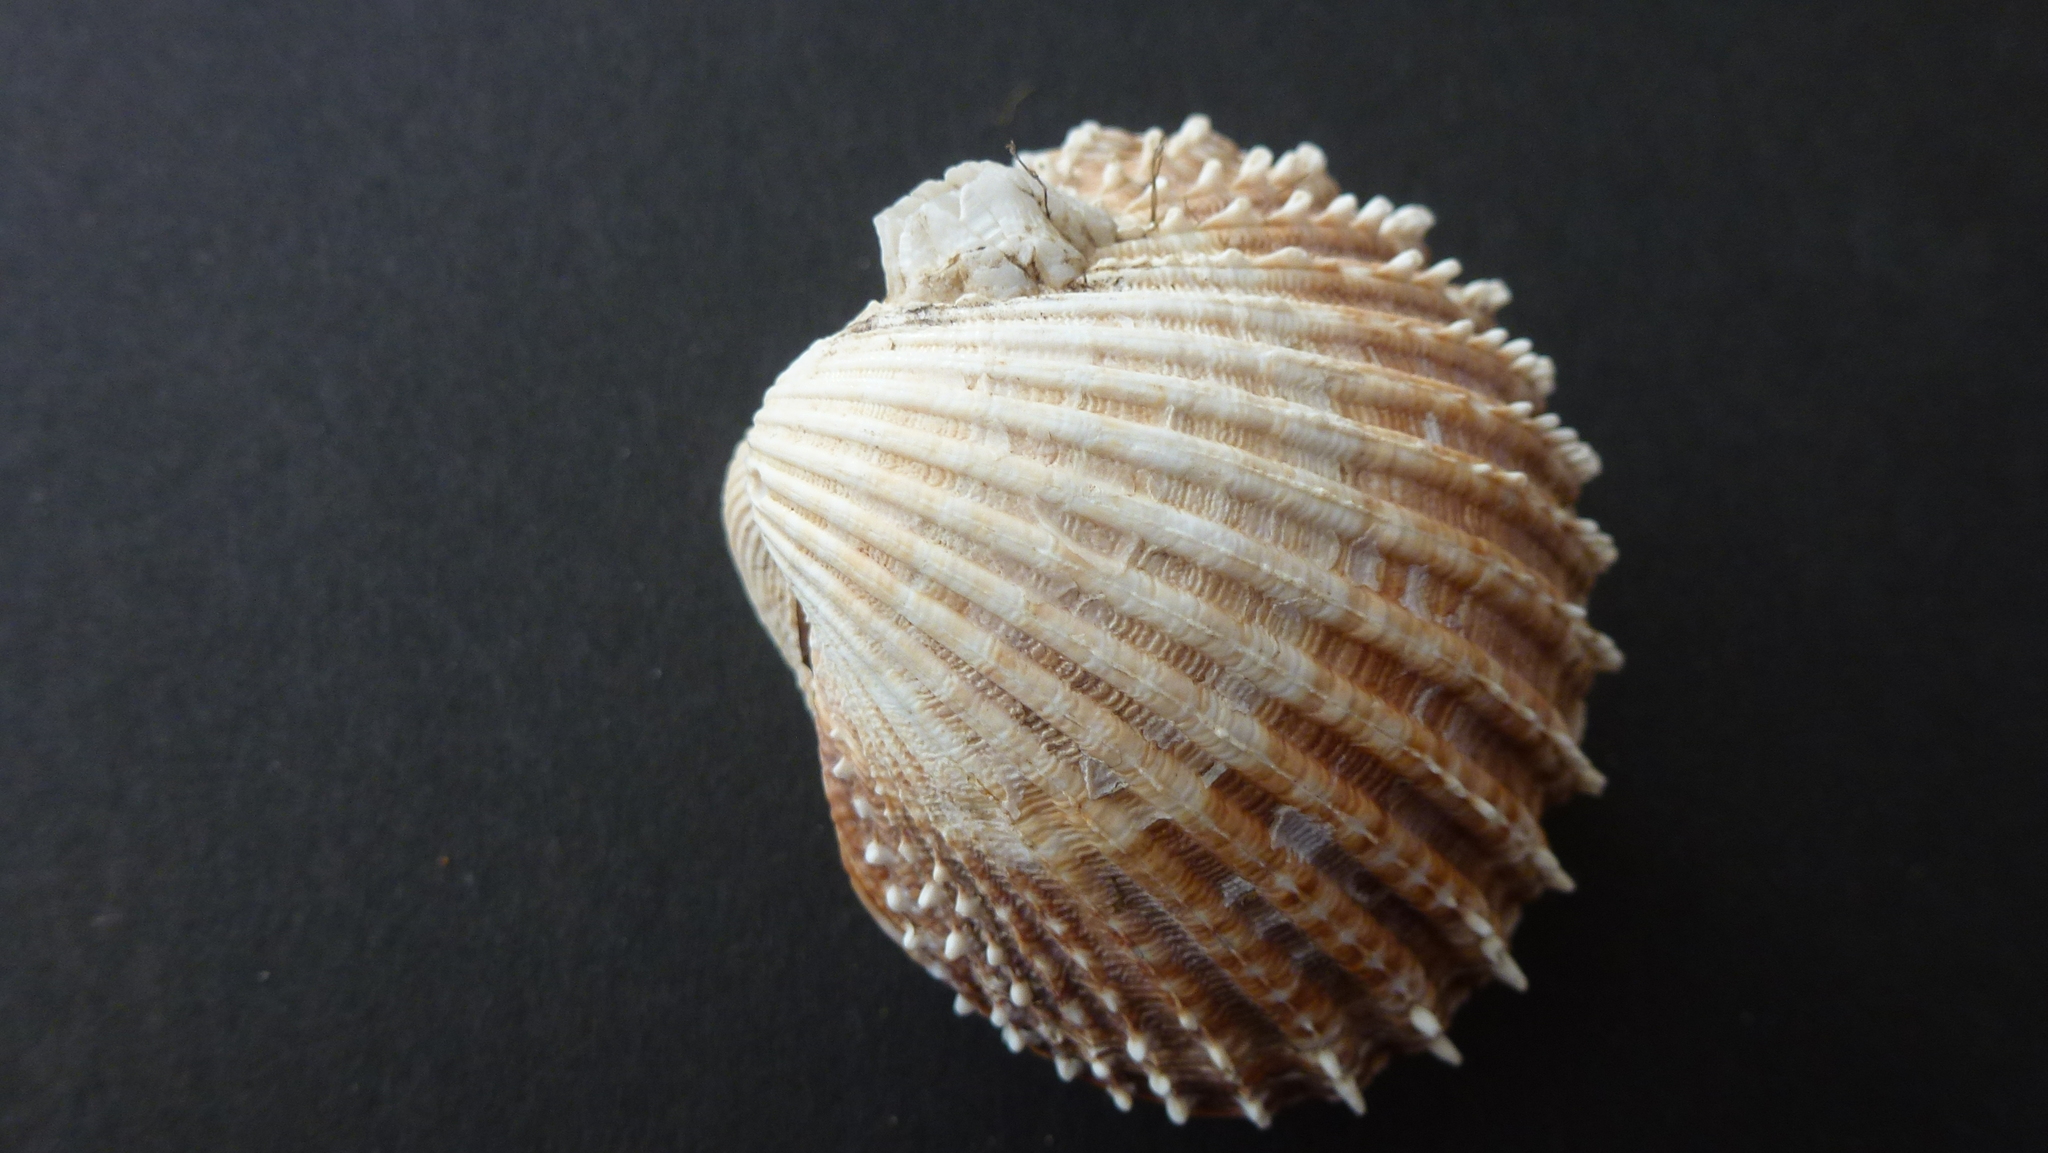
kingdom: Animalia
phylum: Mollusca
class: Bivalvia
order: Cardiida
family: Cardiidae
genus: Acanthocardia
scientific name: Acanthocardia echinata
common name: Prickly cockle
